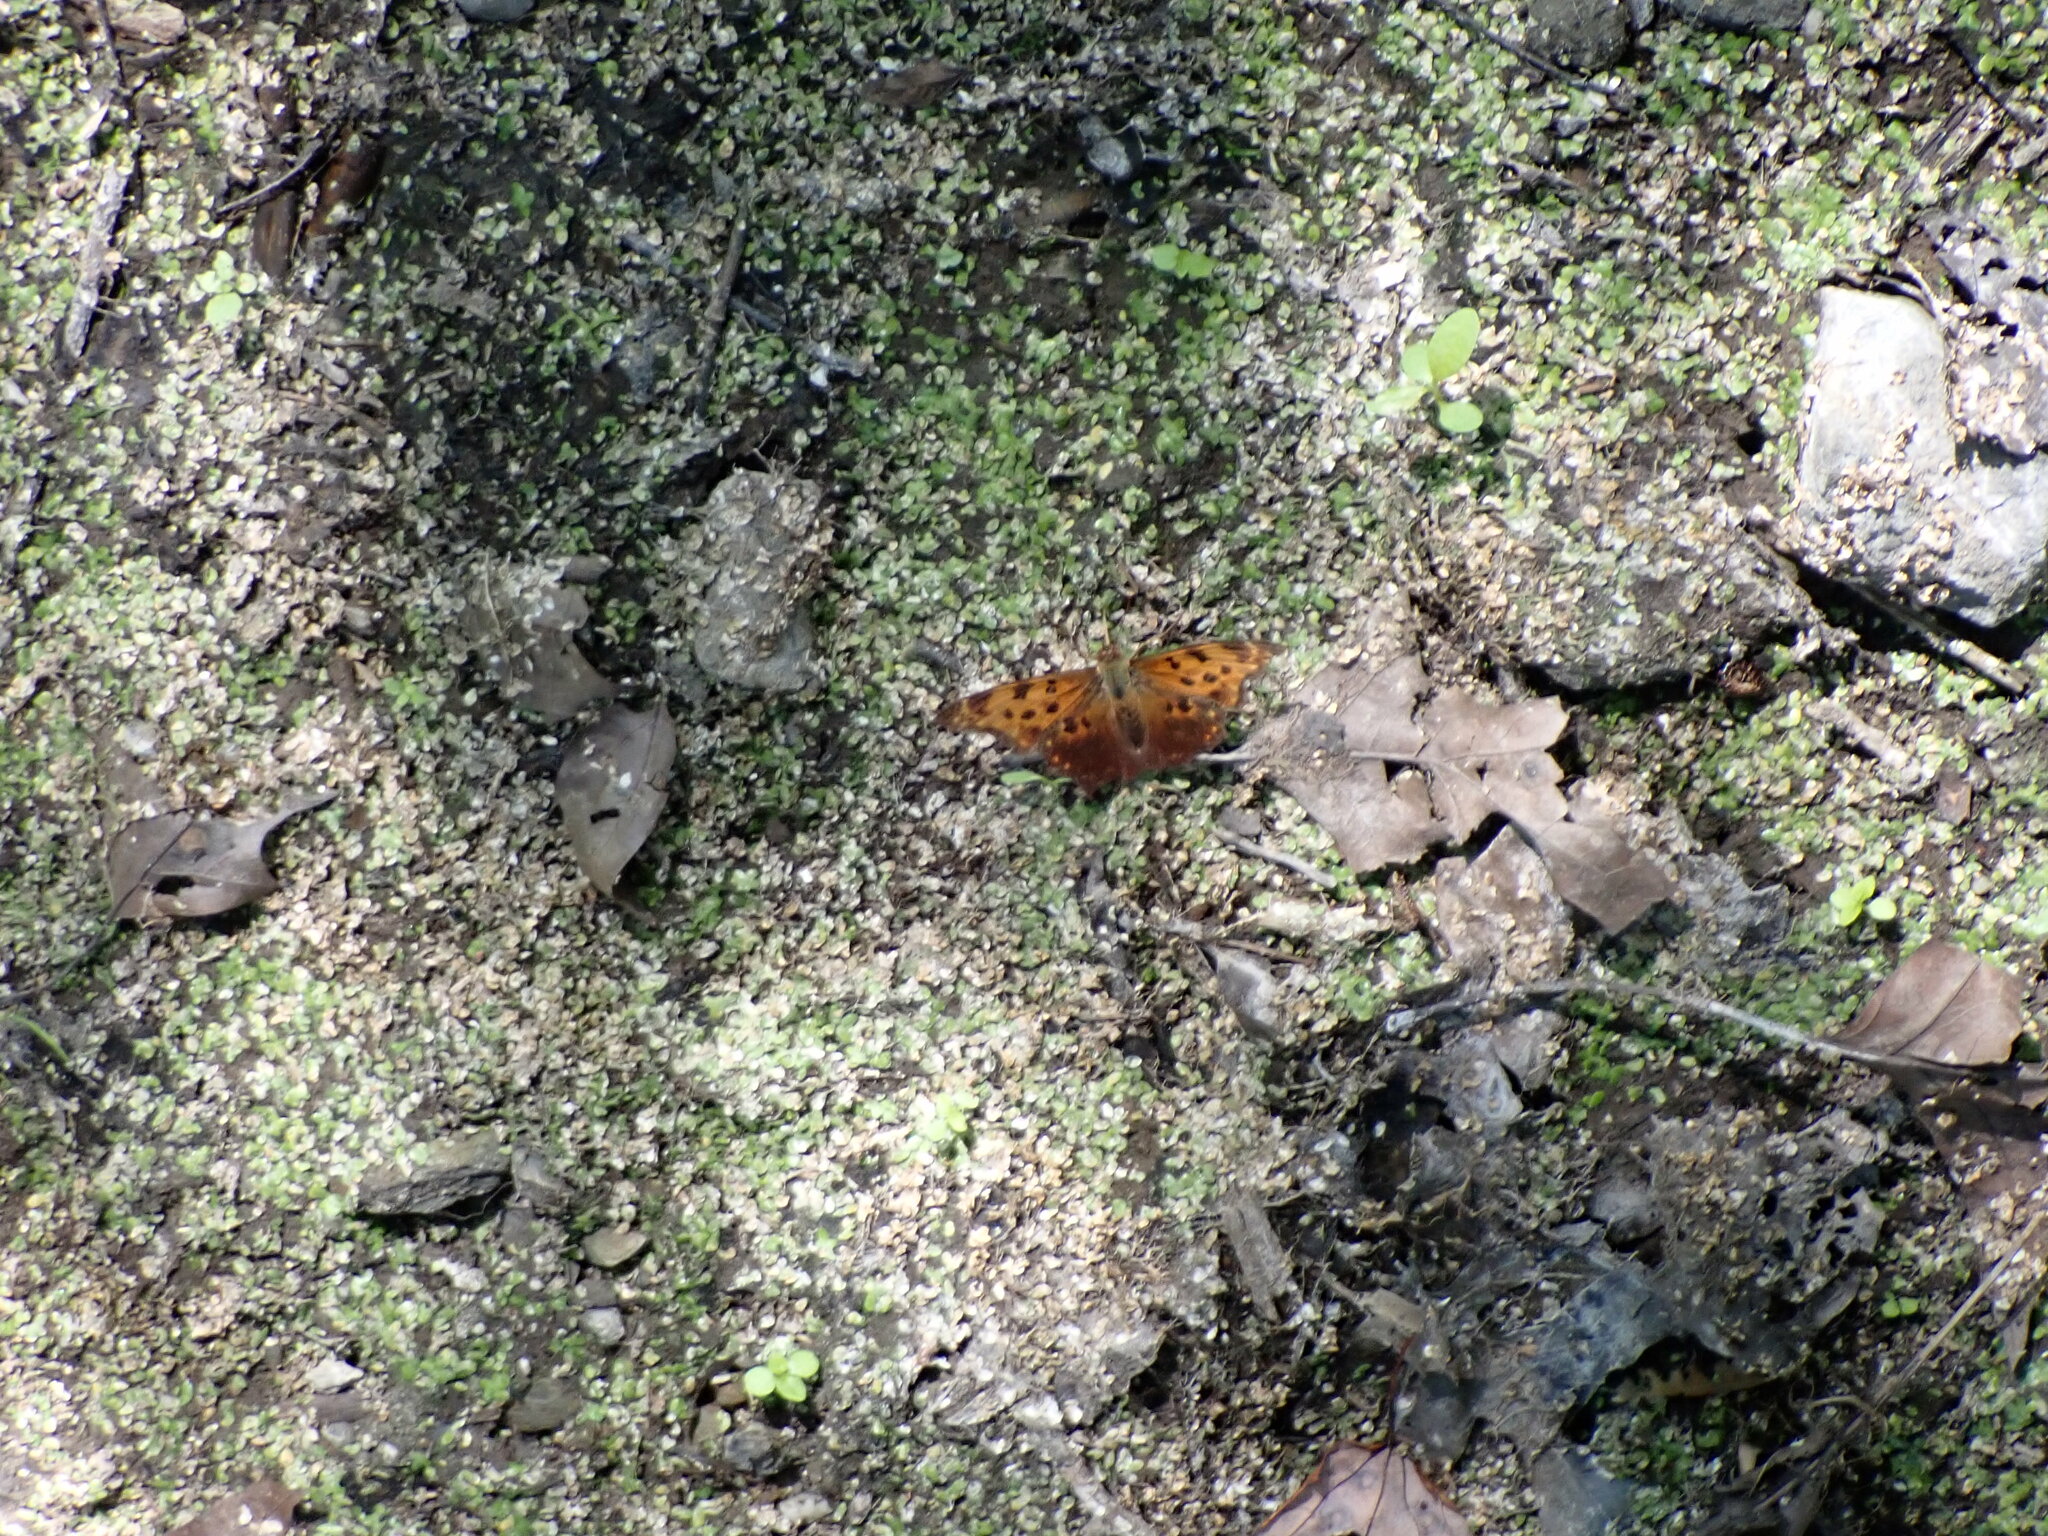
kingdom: Animalia
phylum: Arthropoda
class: Insecta
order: Lepidoptera
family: Nymphalidae
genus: Polygonia
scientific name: Polygonia comma
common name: Eastern comma
